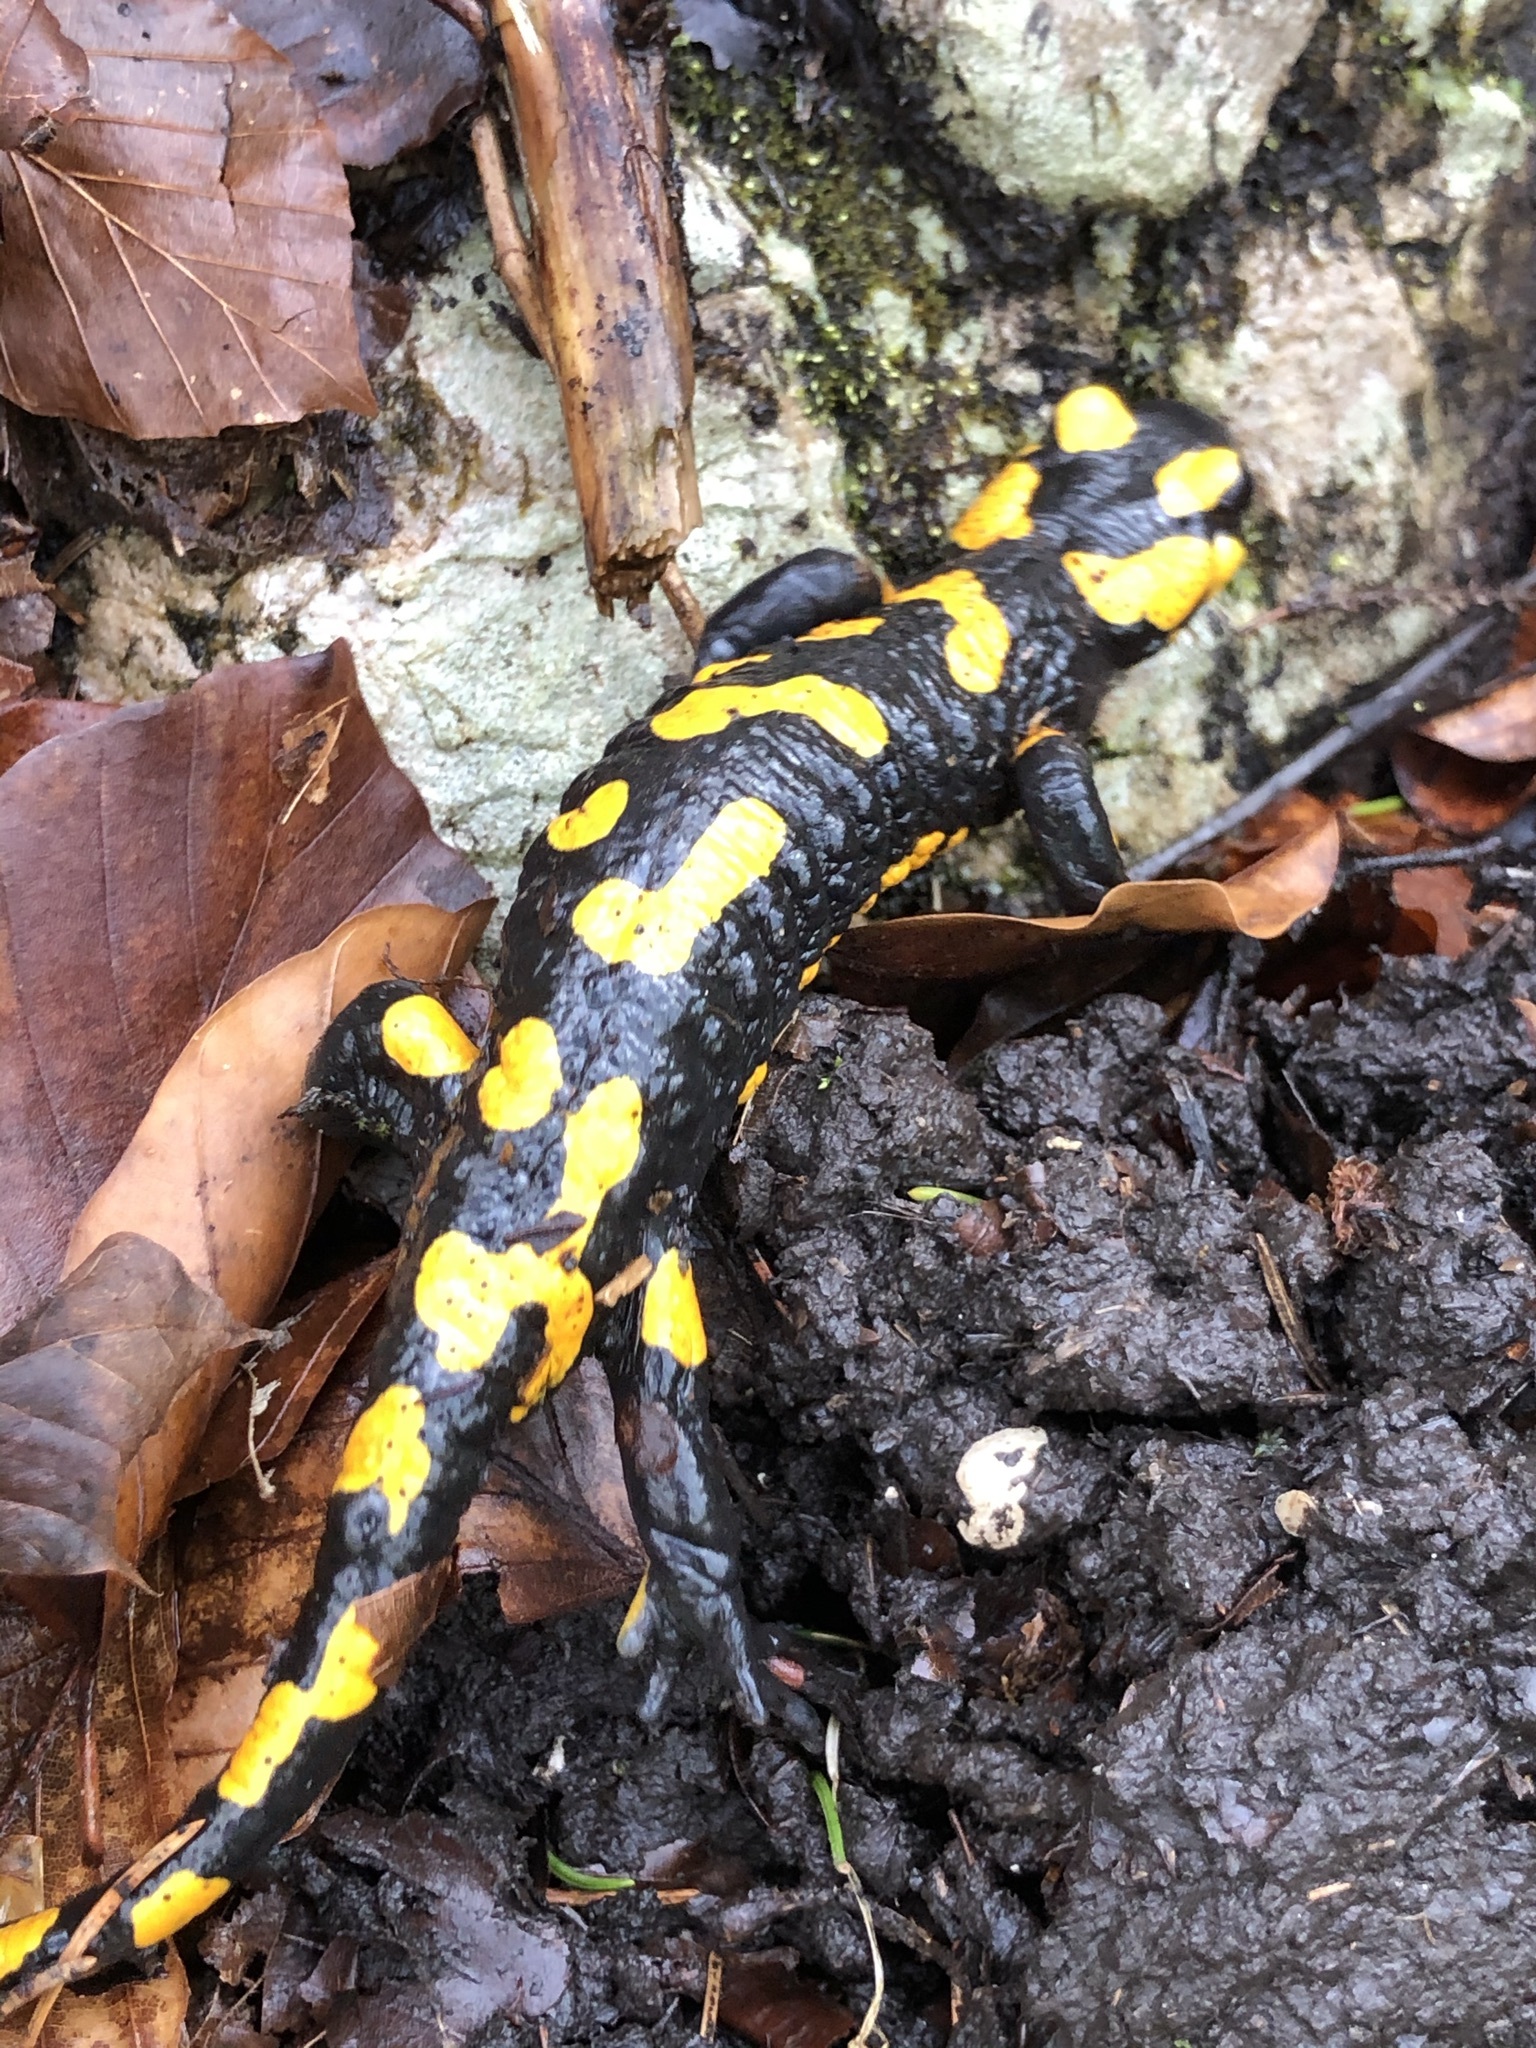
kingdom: Animalia
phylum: Chordata
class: Amphibia
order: Caudata
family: Salamandridae
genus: Salamandra
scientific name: Salamandra salamandra
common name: Fire salamander
